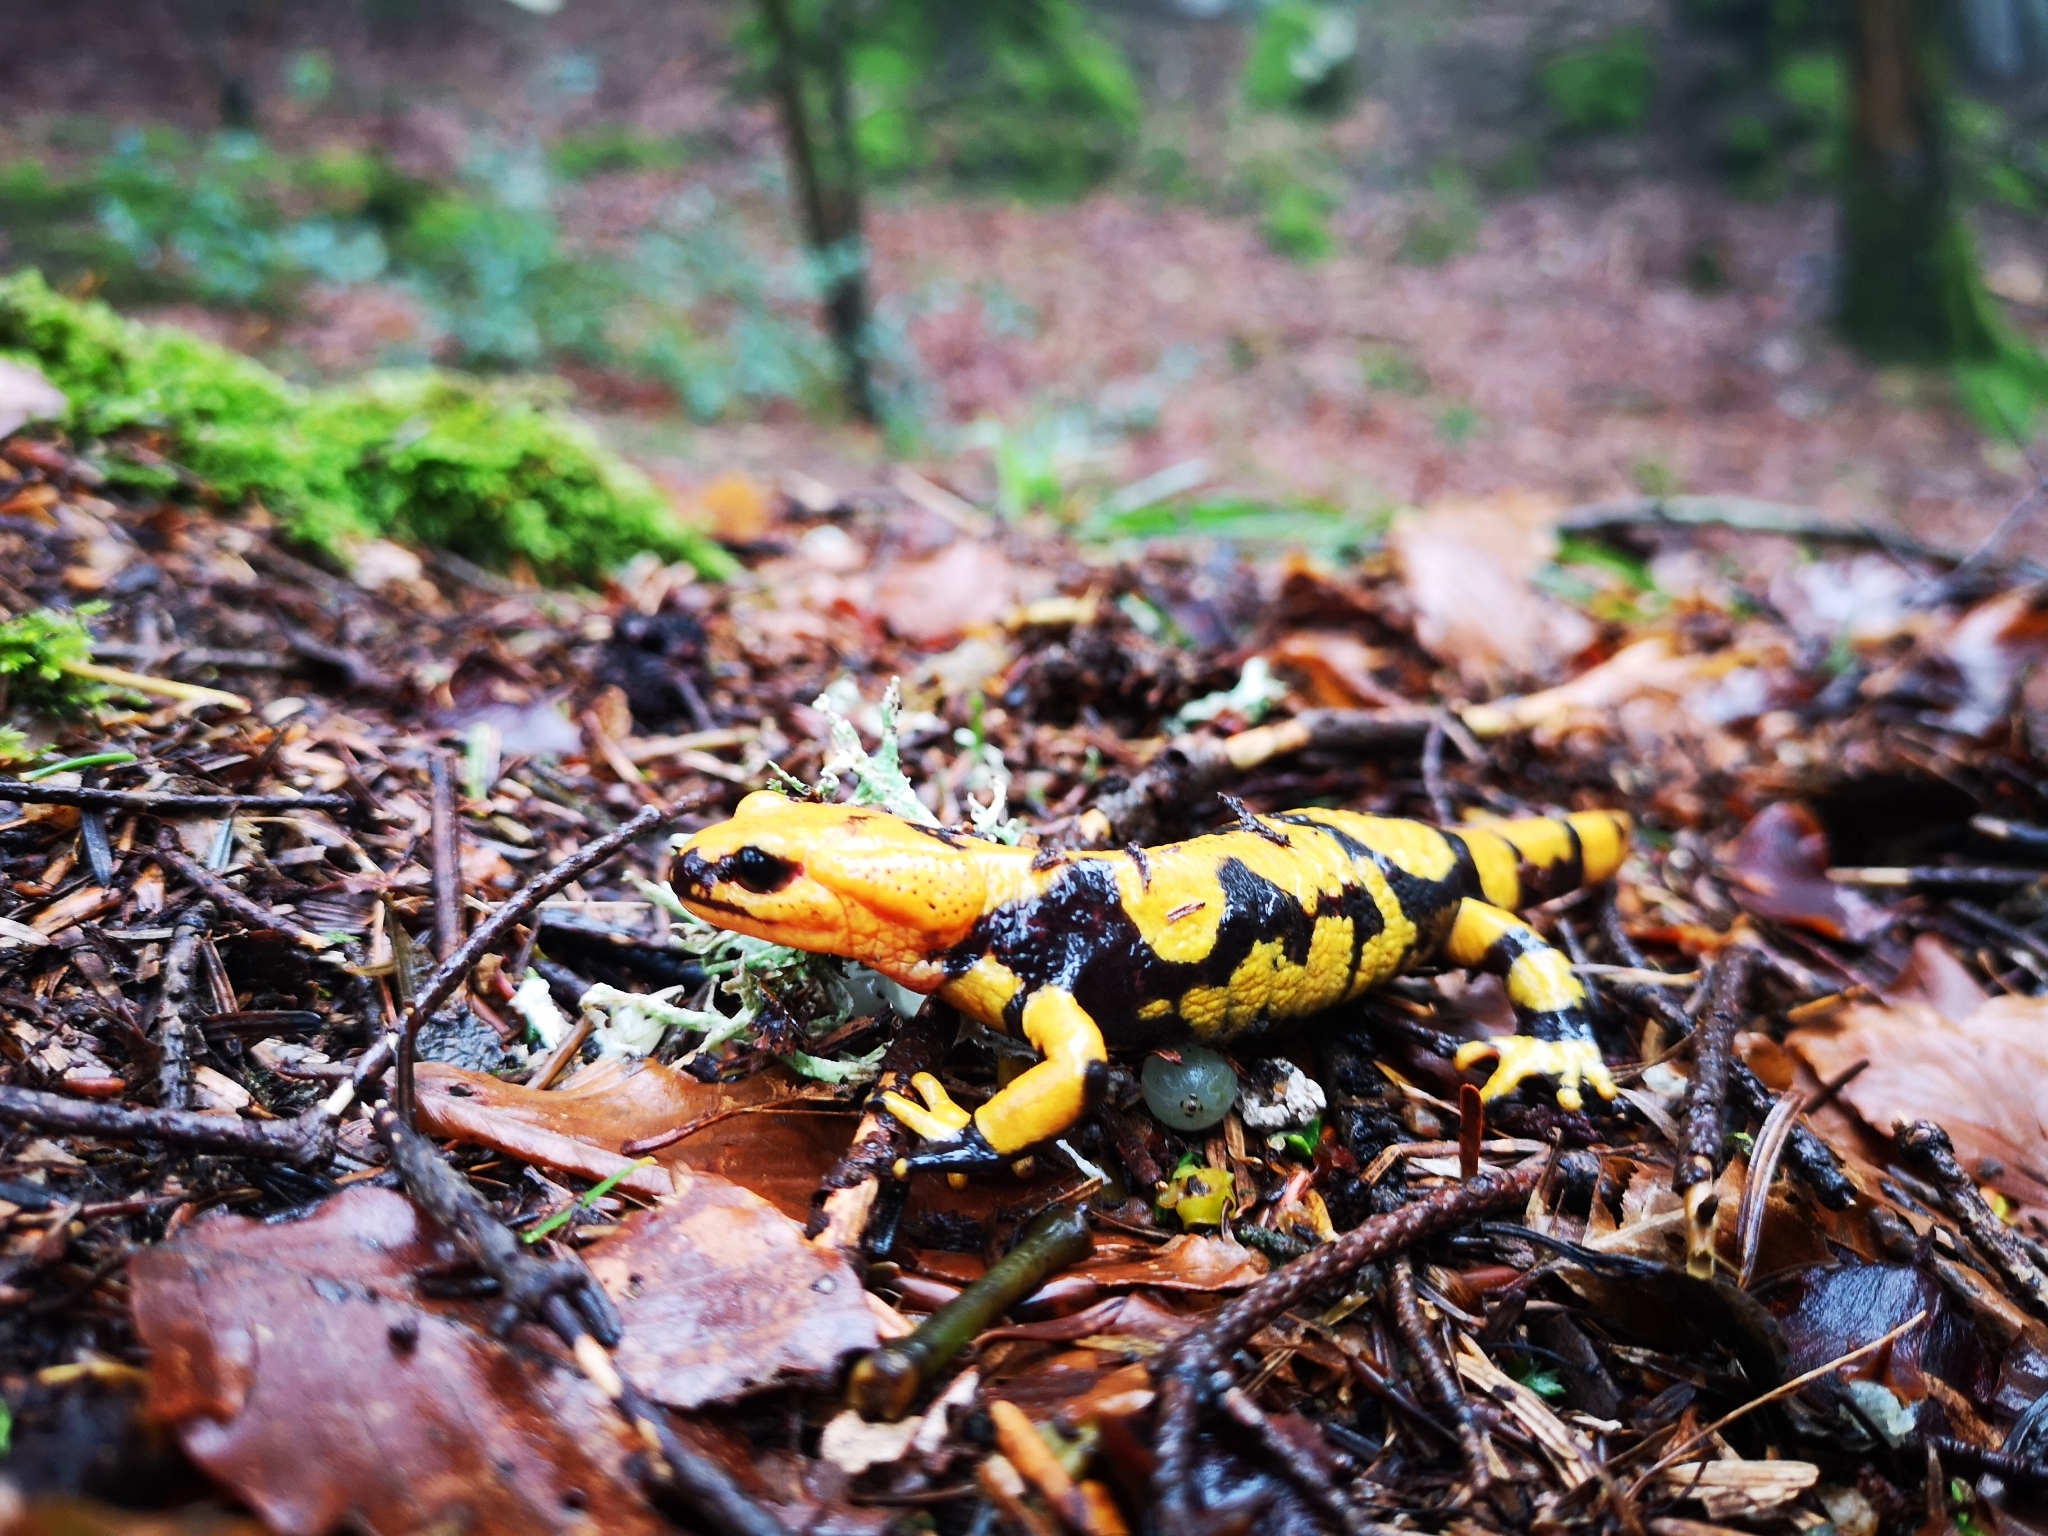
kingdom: Animalia
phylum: Chordata
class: Amphibia
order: Caudata
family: Salamandridae
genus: Salamandra
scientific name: Salamandra salamandra
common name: Fire salamander
